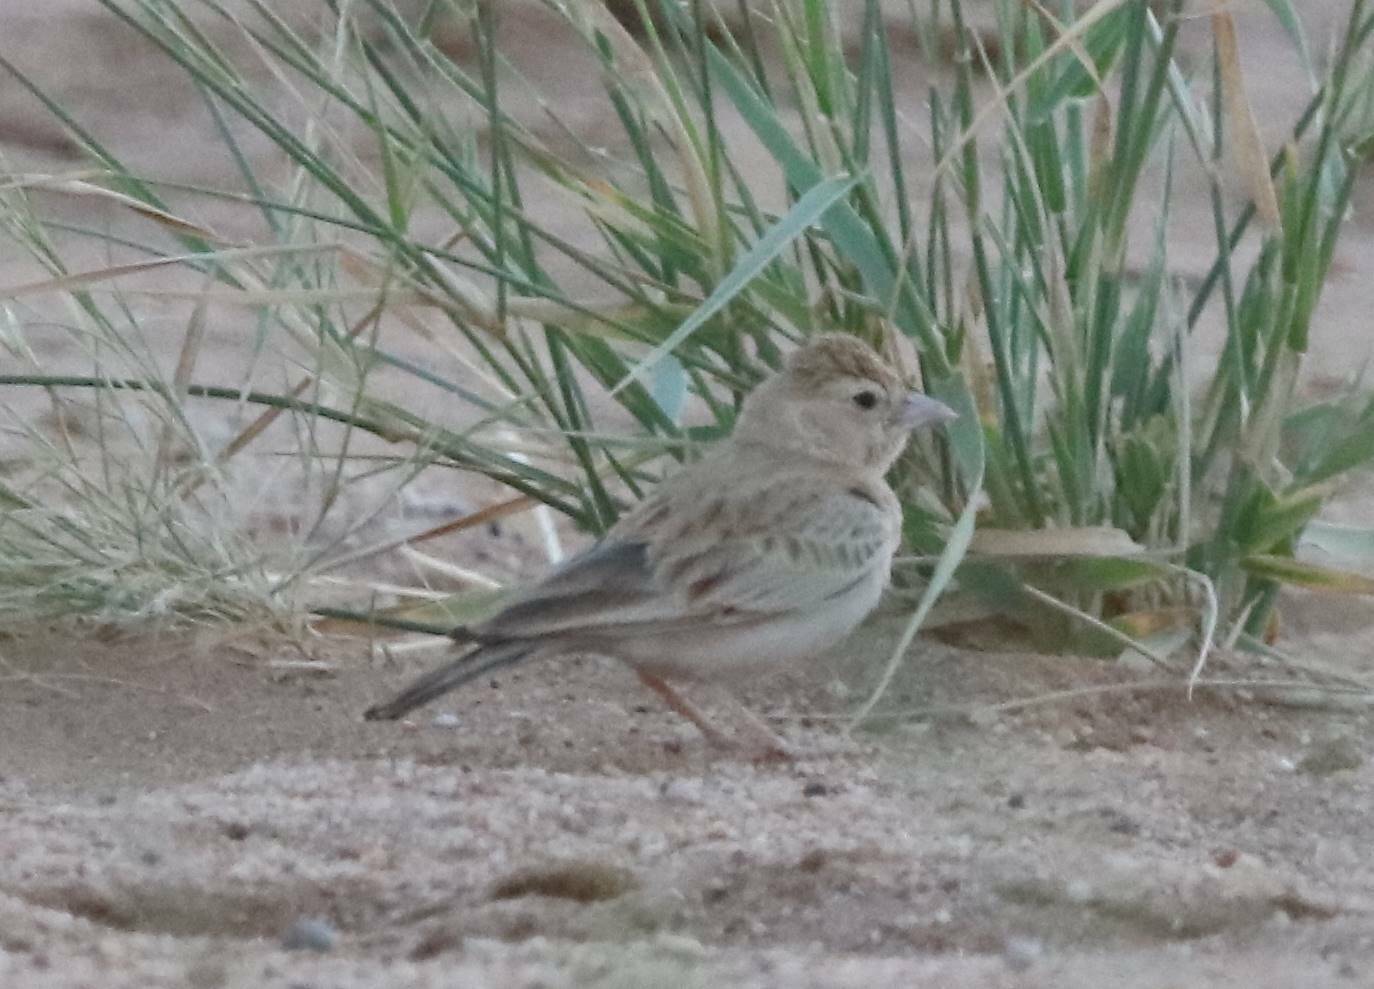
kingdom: Animalia
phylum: Chordata
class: Aves
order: Passeriformes
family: Alaudidae
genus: Eremopterix
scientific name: Eremopterix nigriceps
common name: Black-crowned sparrow-lark
